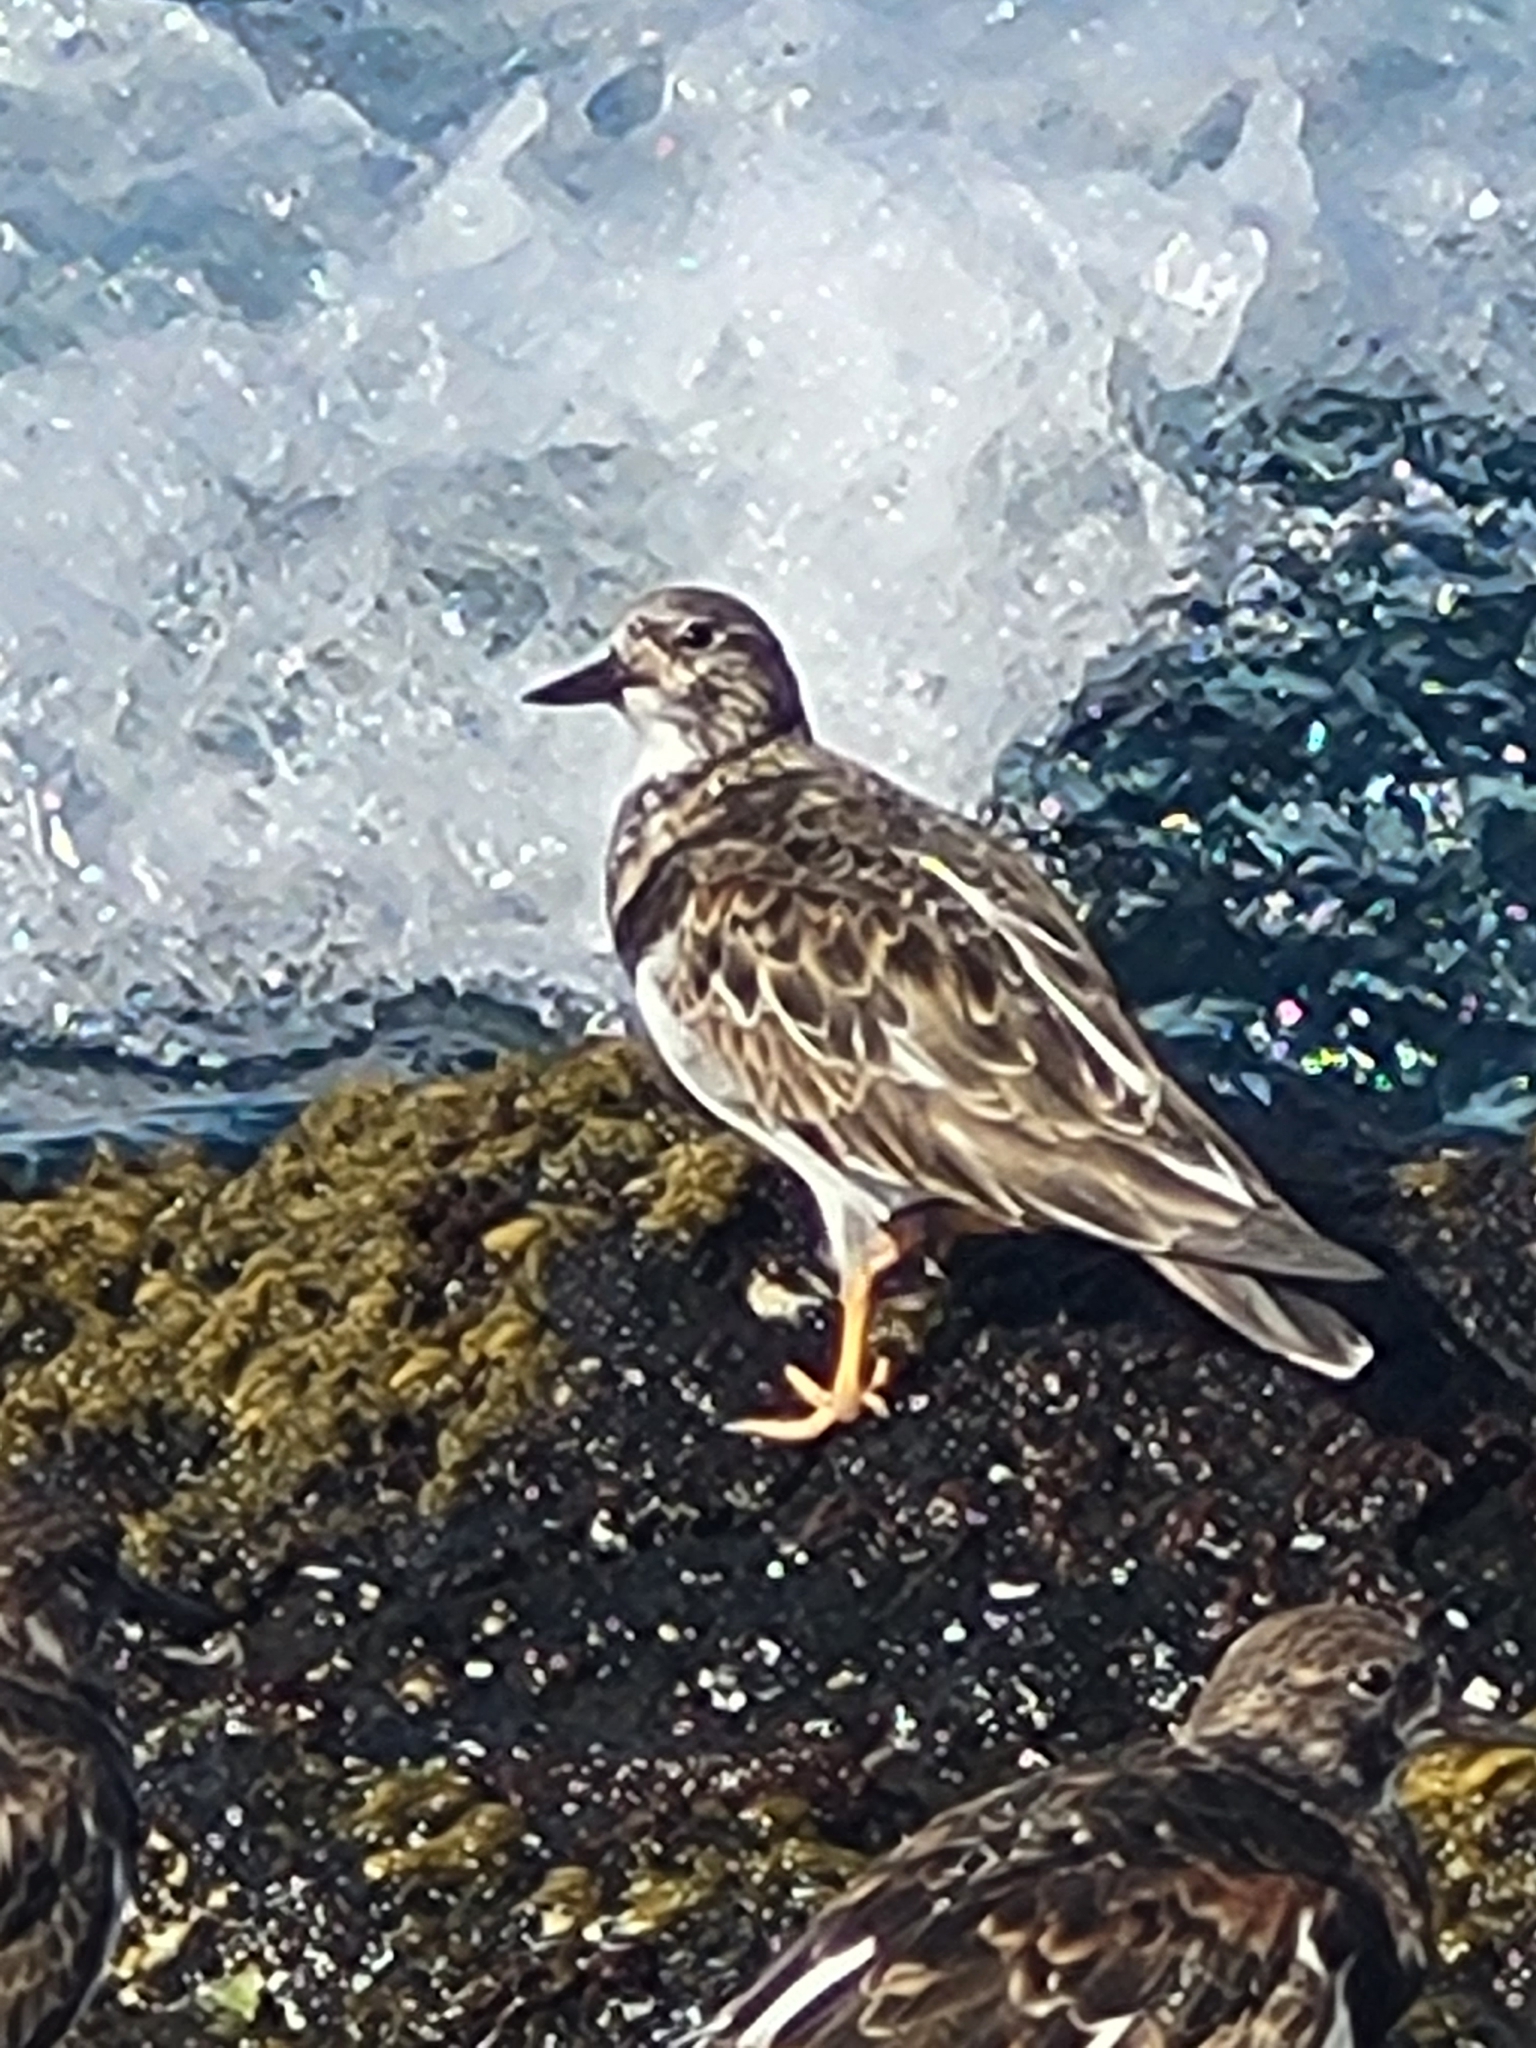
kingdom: Animalia
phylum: Chordata
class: Aves
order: Charadriiformes
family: Scolopacidae
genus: Arenaria
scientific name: Arenaria interpres
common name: Ruddy turnstone
